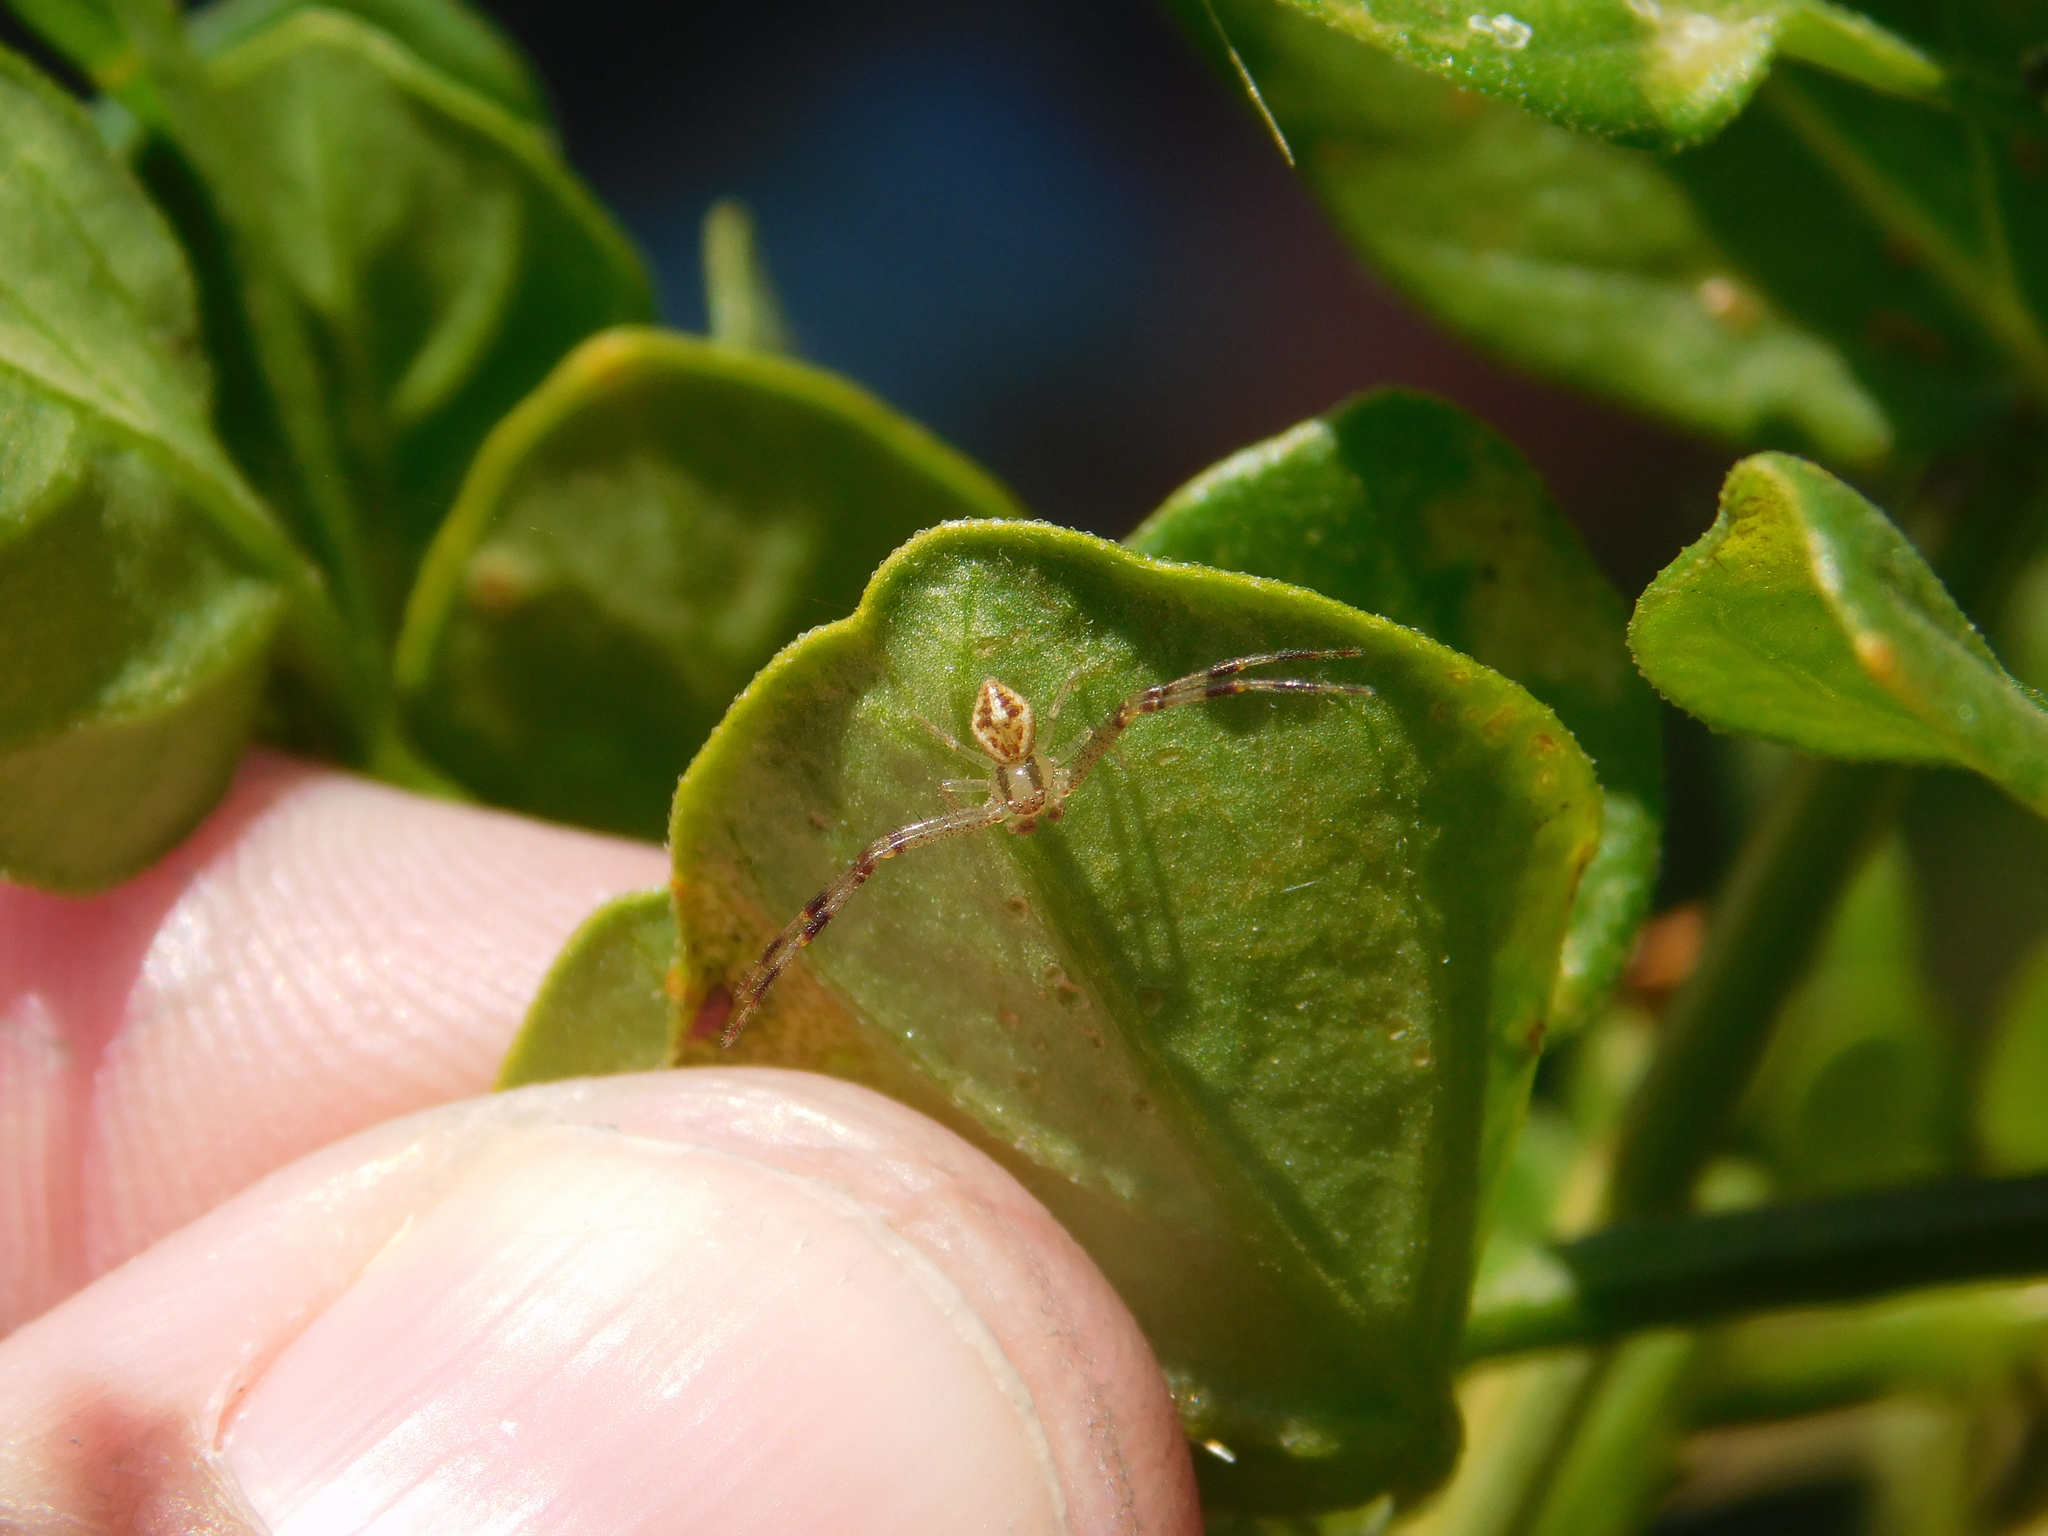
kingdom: Animalia
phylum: Arthropoda
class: Arachnida
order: Araneae
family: Thomisidae
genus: Misumenops
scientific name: Misumenops
